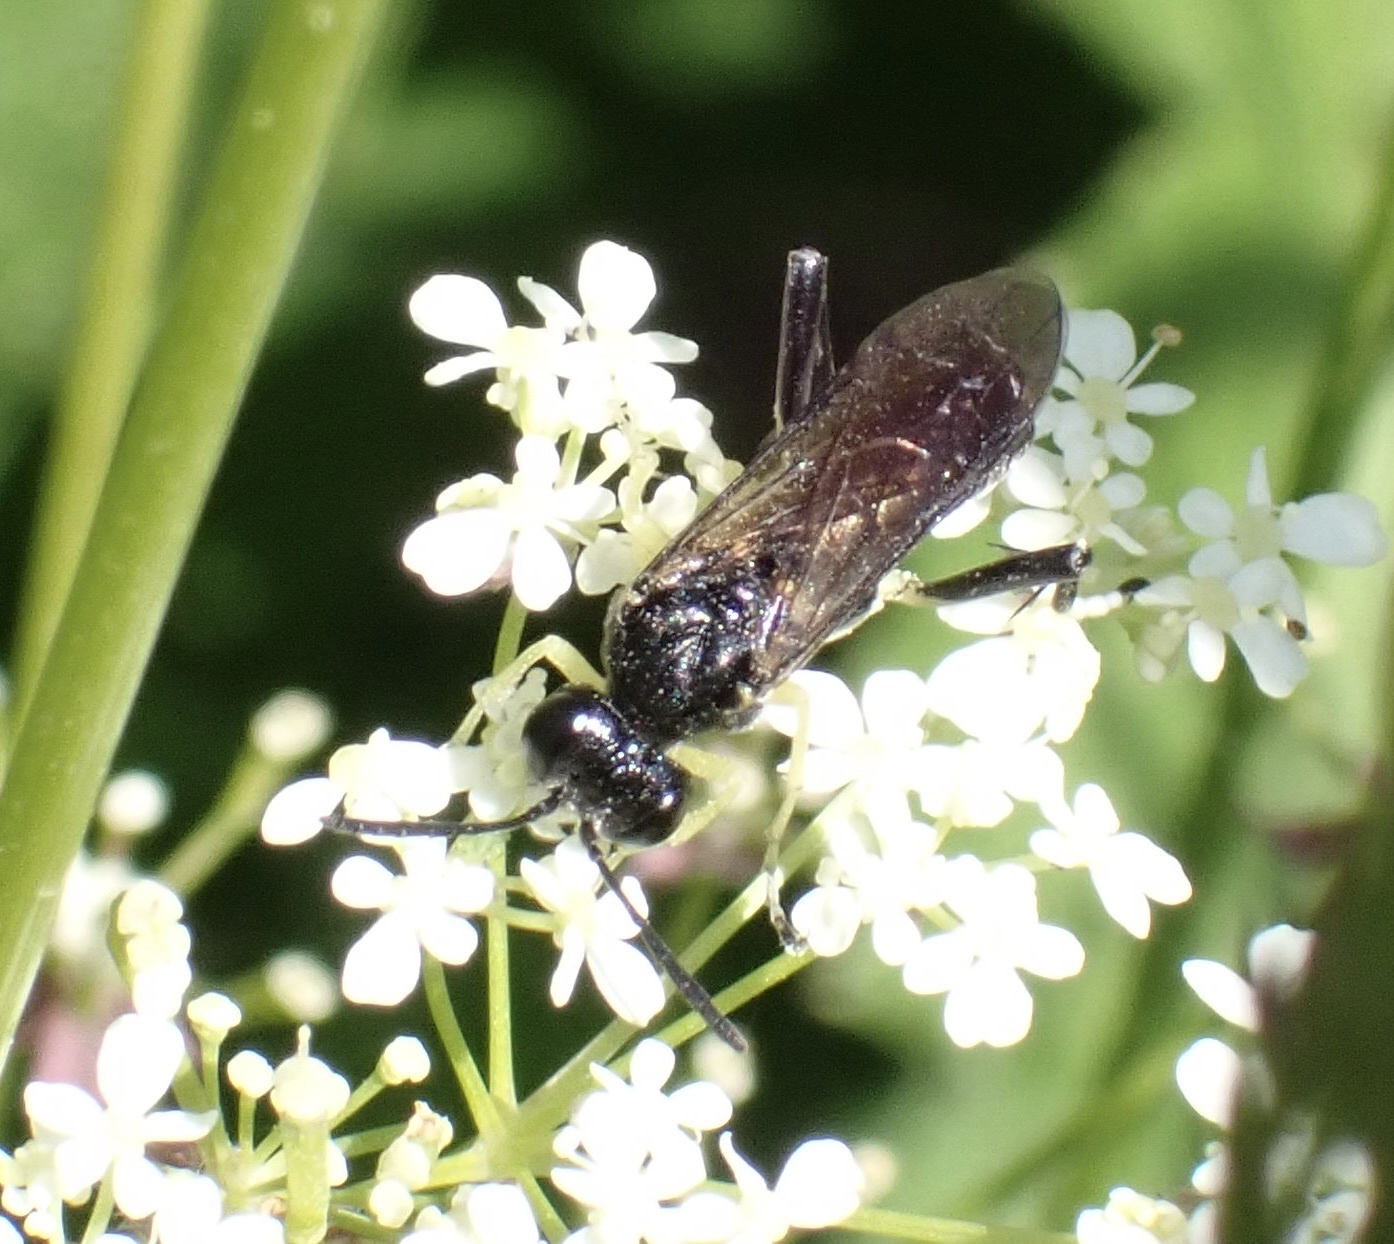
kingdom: Animalia
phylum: Arthropoda
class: Insecta
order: Hymenoptera
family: Tenthredinidae
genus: Macrophya
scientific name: Macrophya montana
